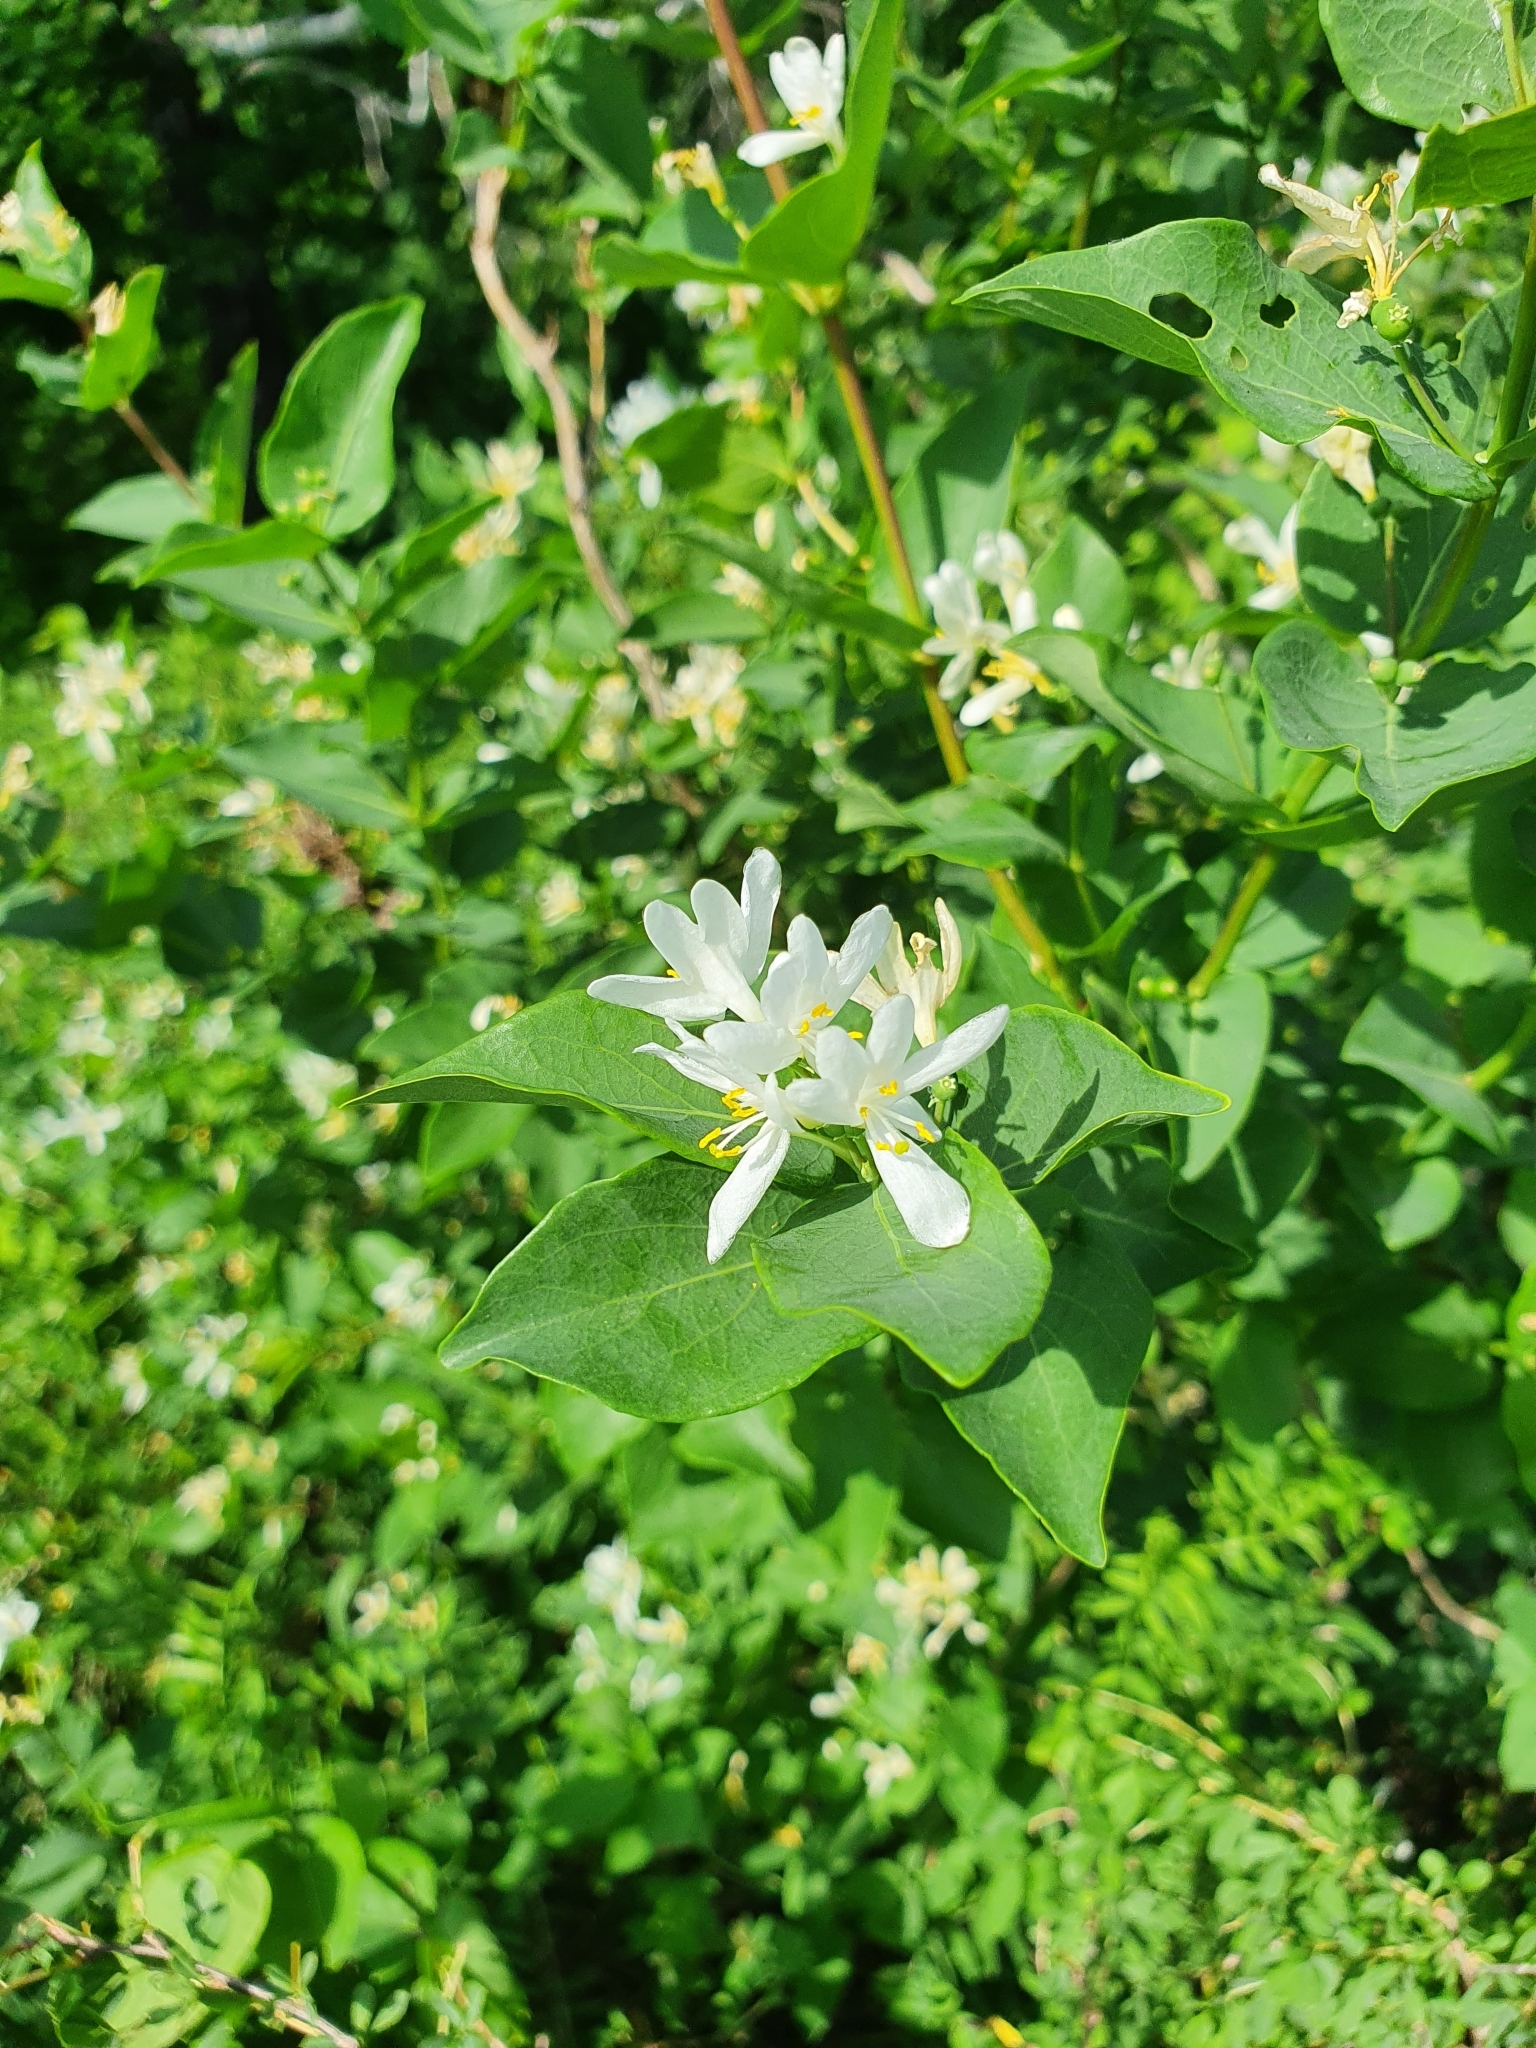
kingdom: Plantae
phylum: Tracheophyta
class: Magnoliopsida
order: Dipsacales
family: Caprifoliaceae
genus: Lonicera
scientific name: Lonicera tatarica
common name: Tatarian honeysuckle
